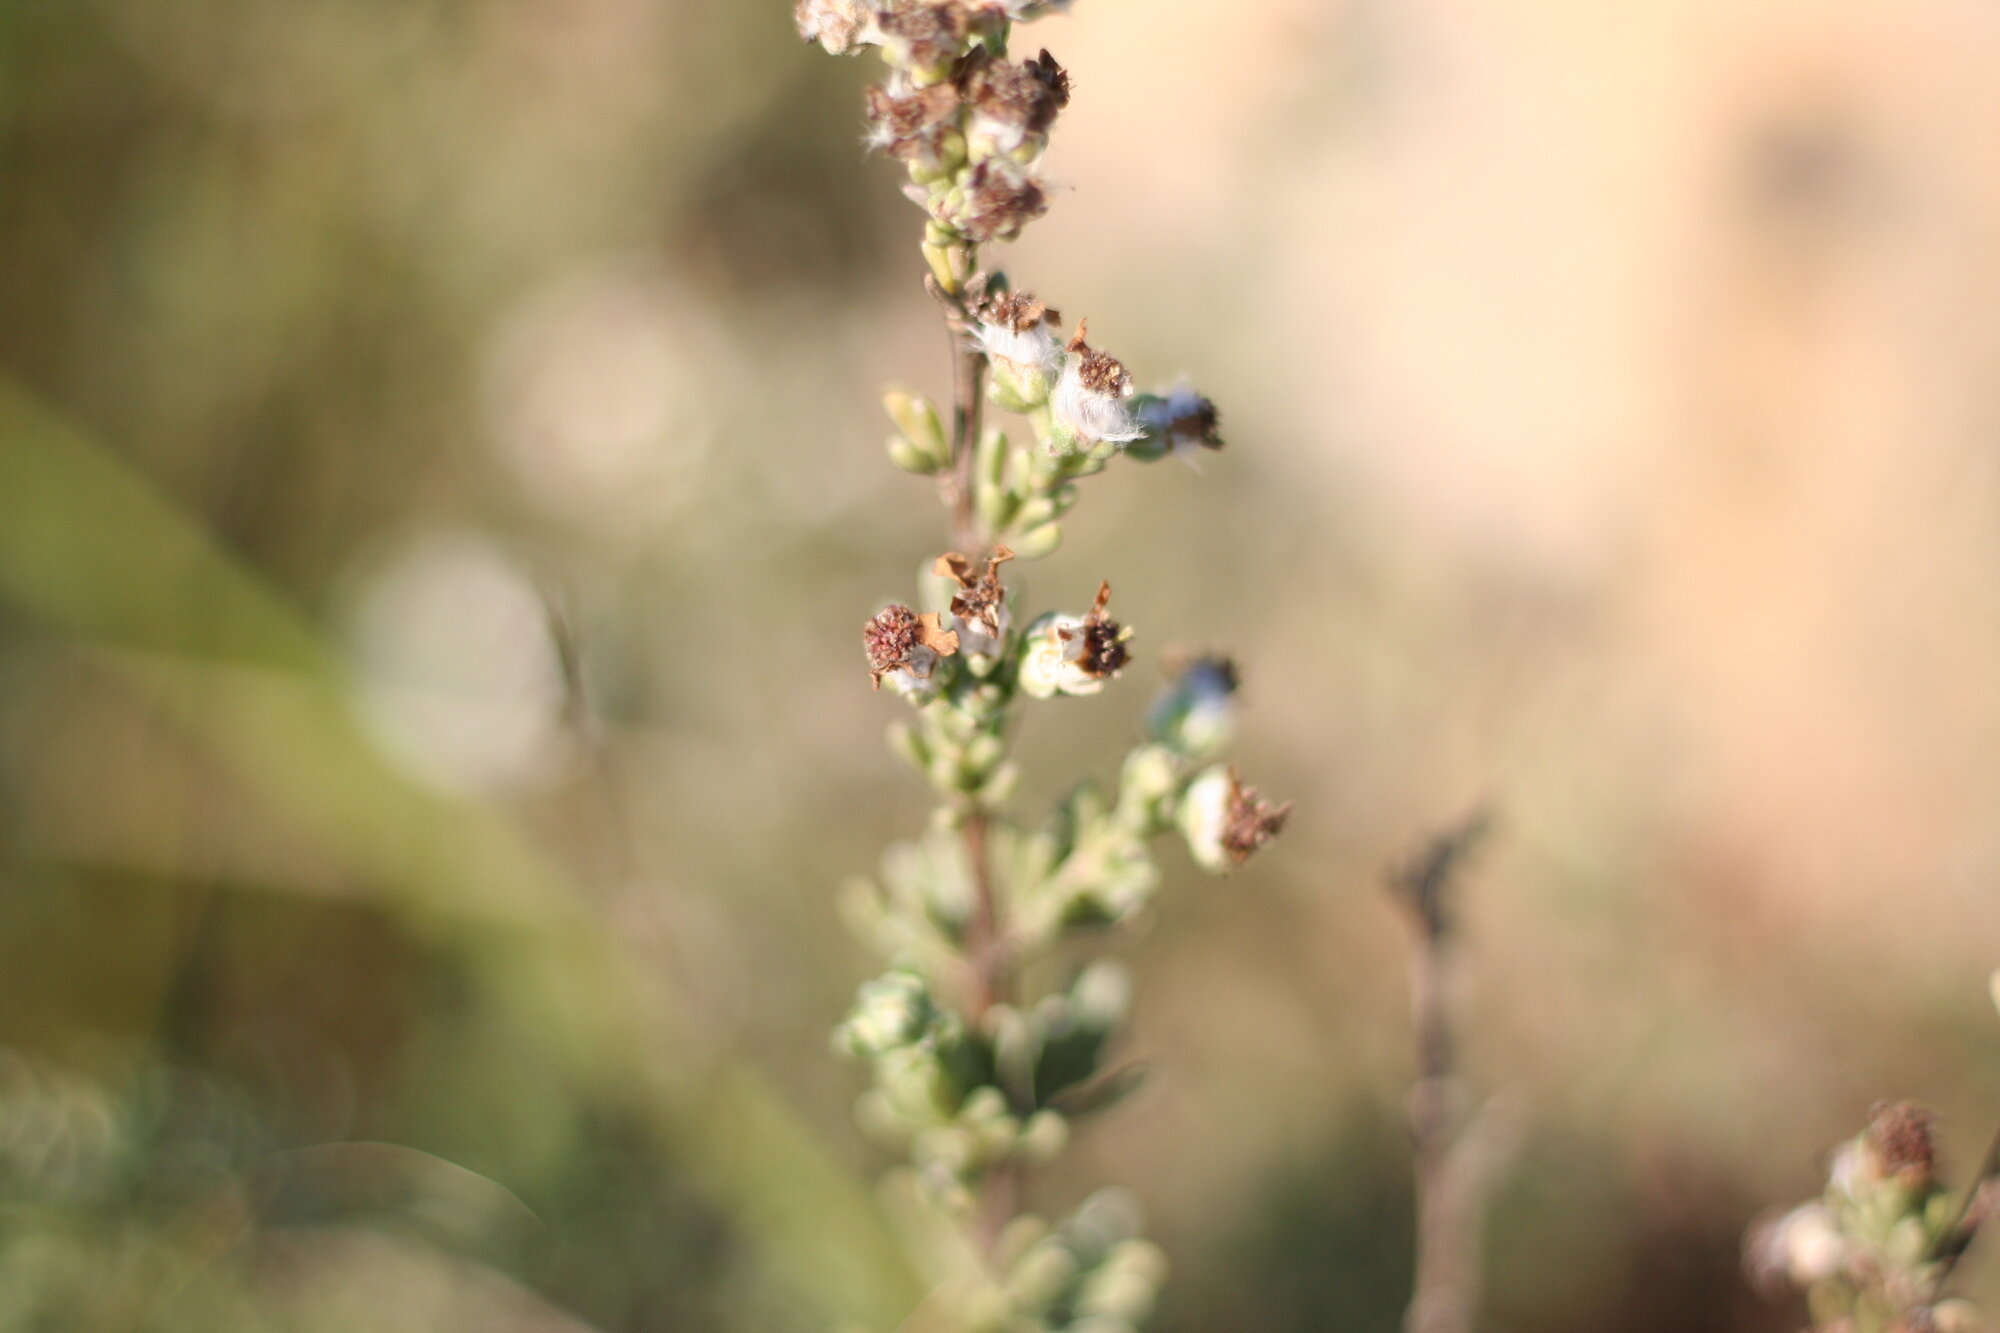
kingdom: Plantae
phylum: Tracheophyta
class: Magnoliopsida
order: Asterales
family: Asteraceae
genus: Eriocephalus
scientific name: Eriocephalus africanus
